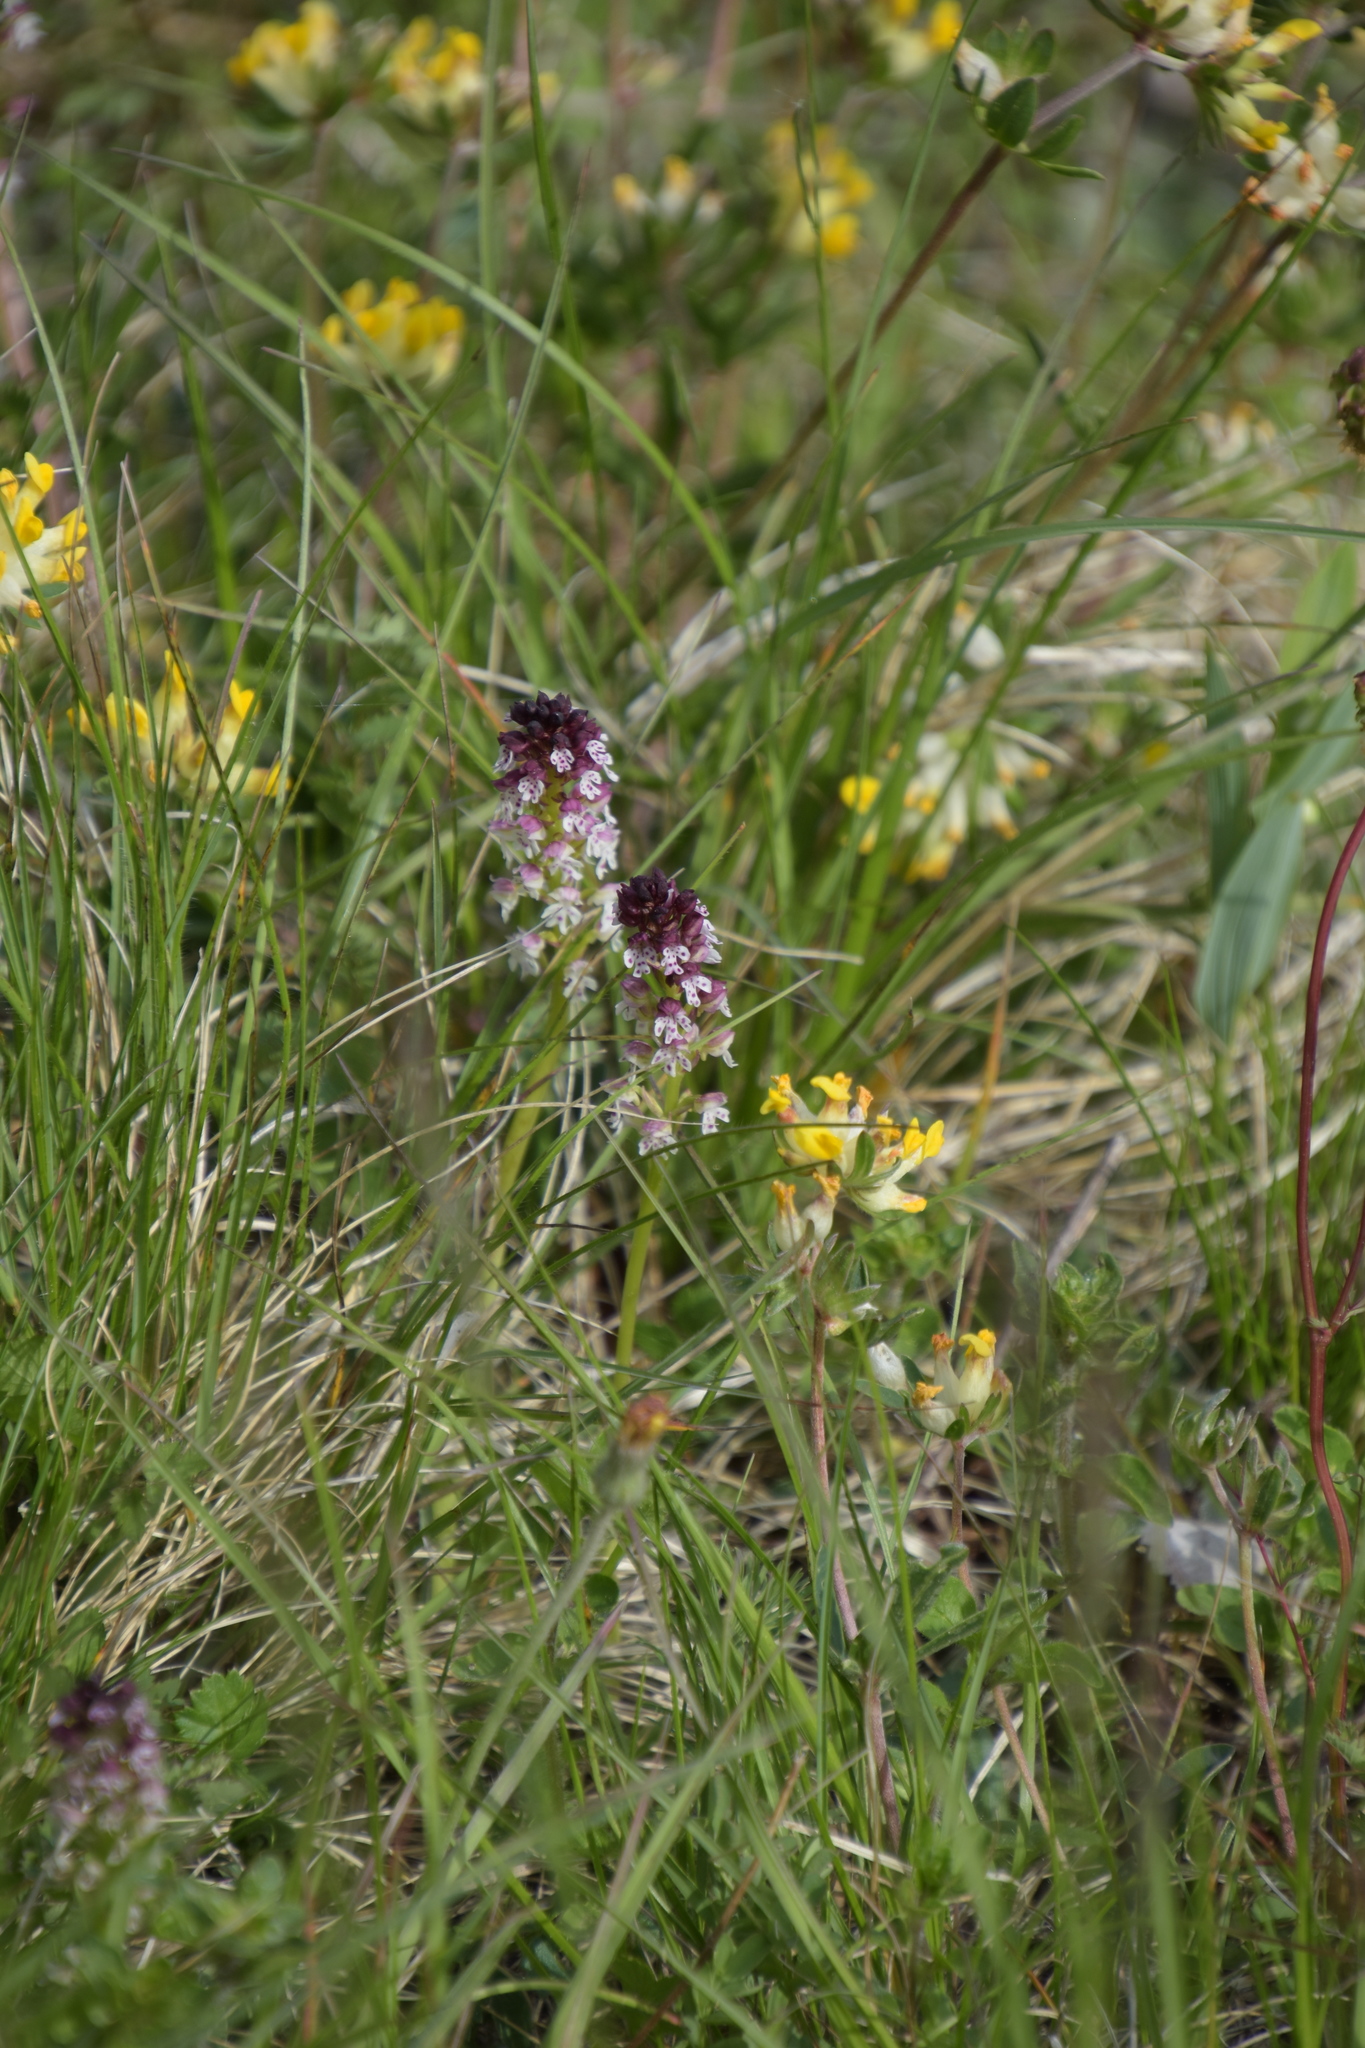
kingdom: Plantae
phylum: Tracheophyta
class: Liliopsida
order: Asparagales
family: Orchidaceae
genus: Neotinea
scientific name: Neotinea ustulata
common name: Burnt orchid
